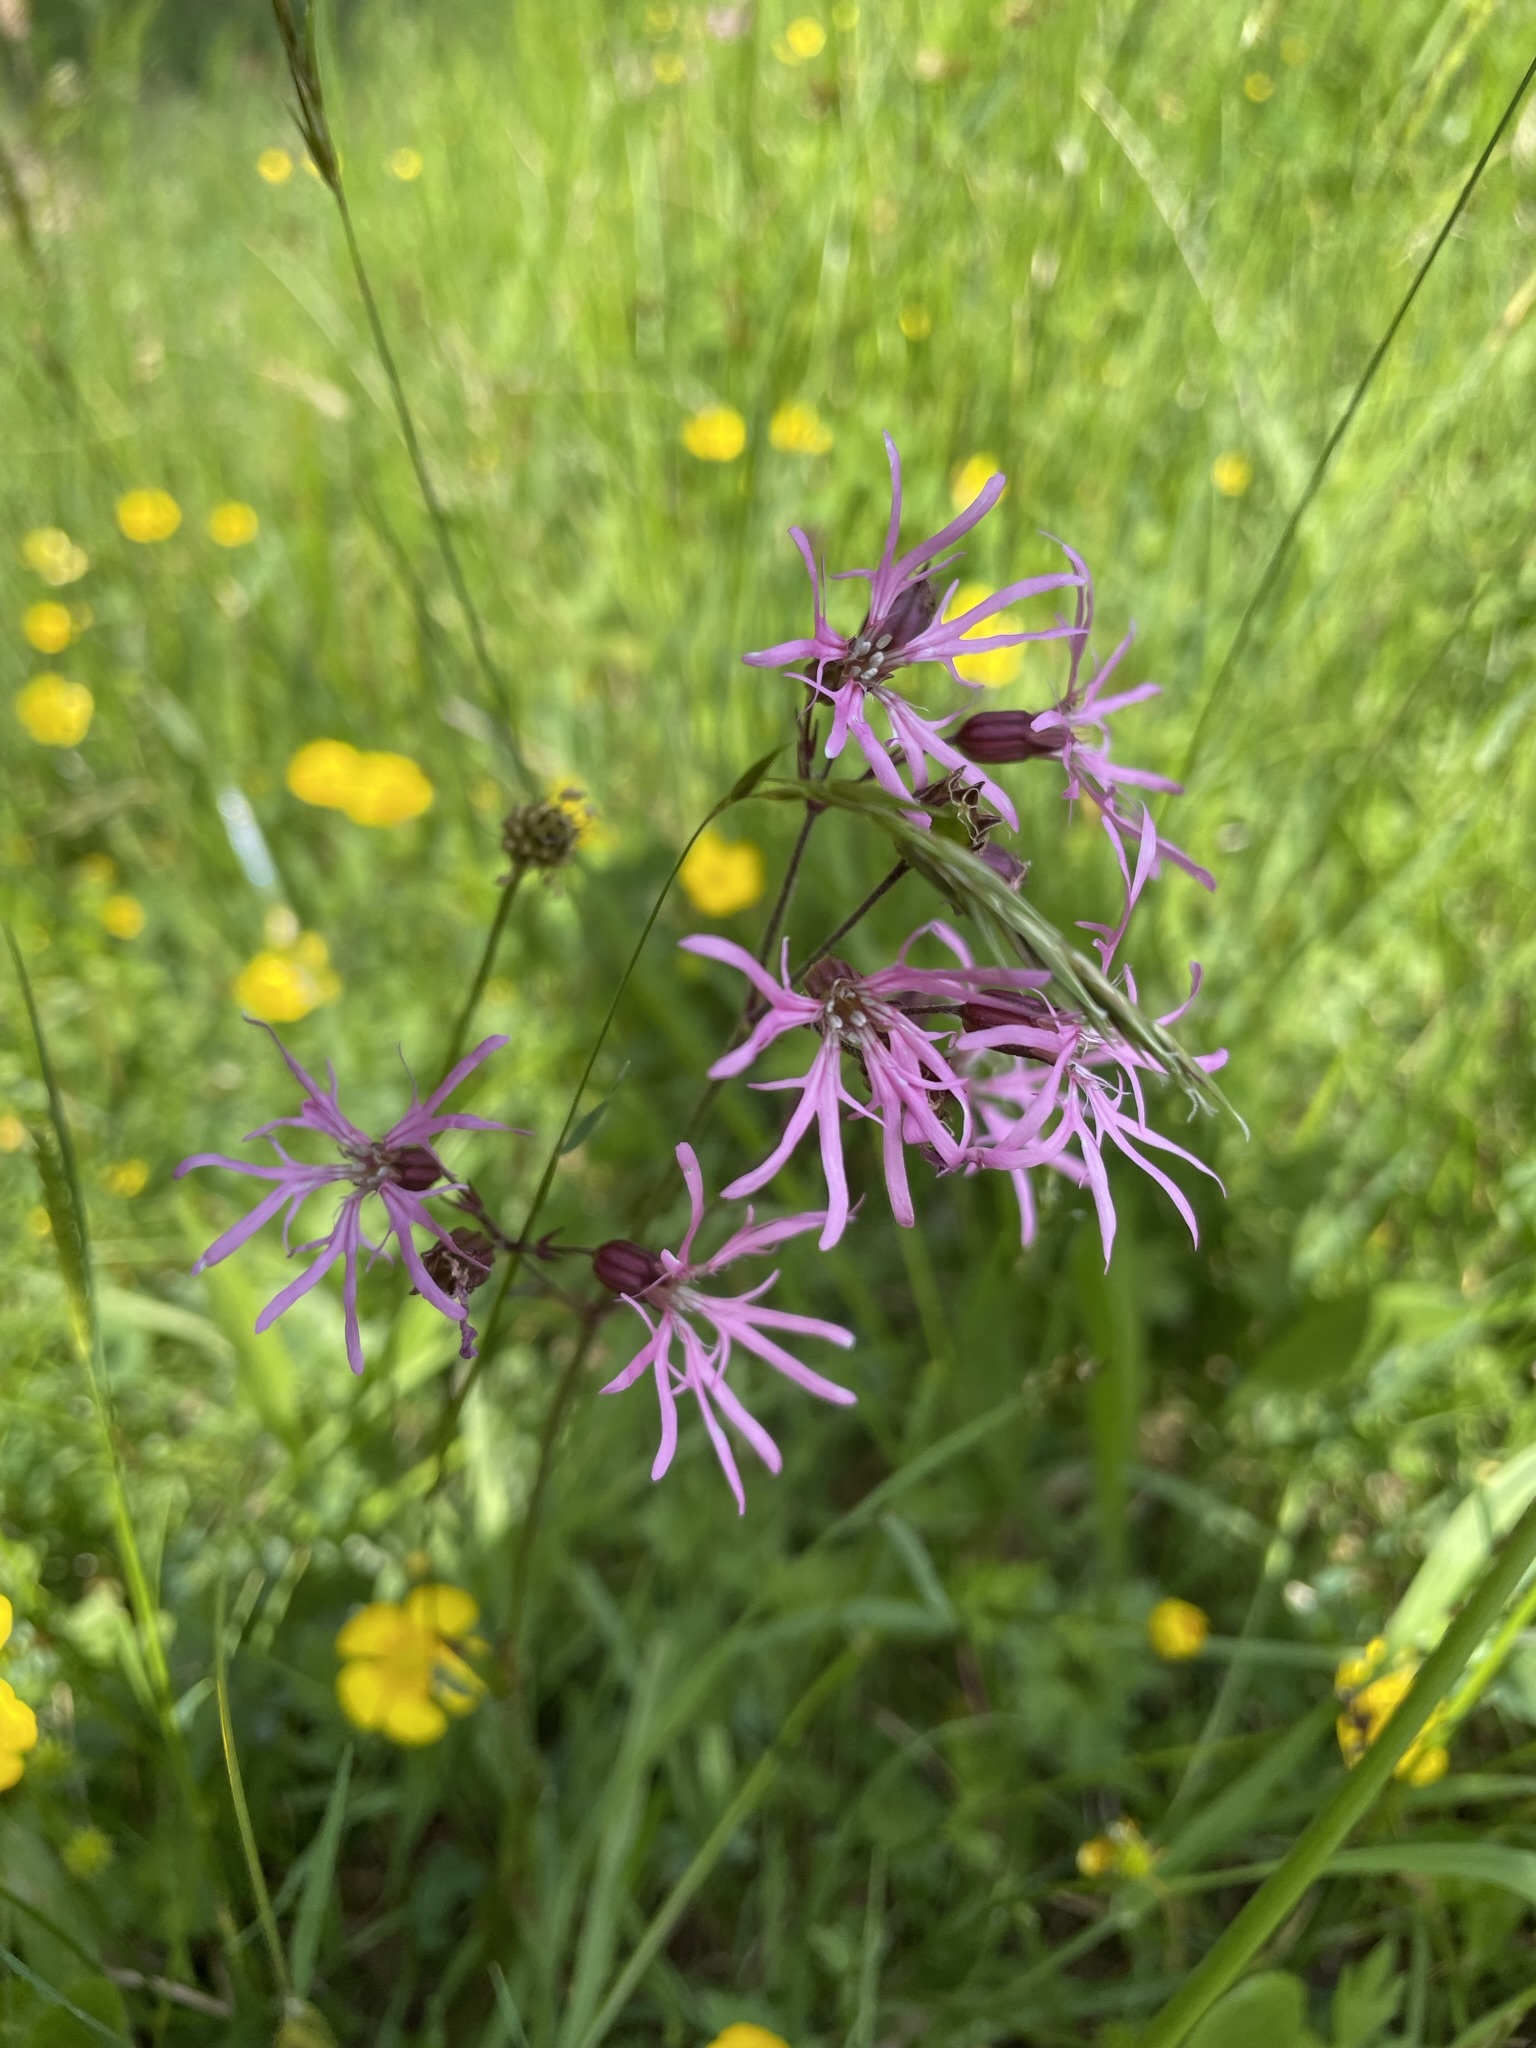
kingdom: Plantae
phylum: Tracheophyta
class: Magnoliopsida
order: Caryophyllales
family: Caryophyllaceae
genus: Silene
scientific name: Silene flos-cuculi
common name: Ragged-robin
